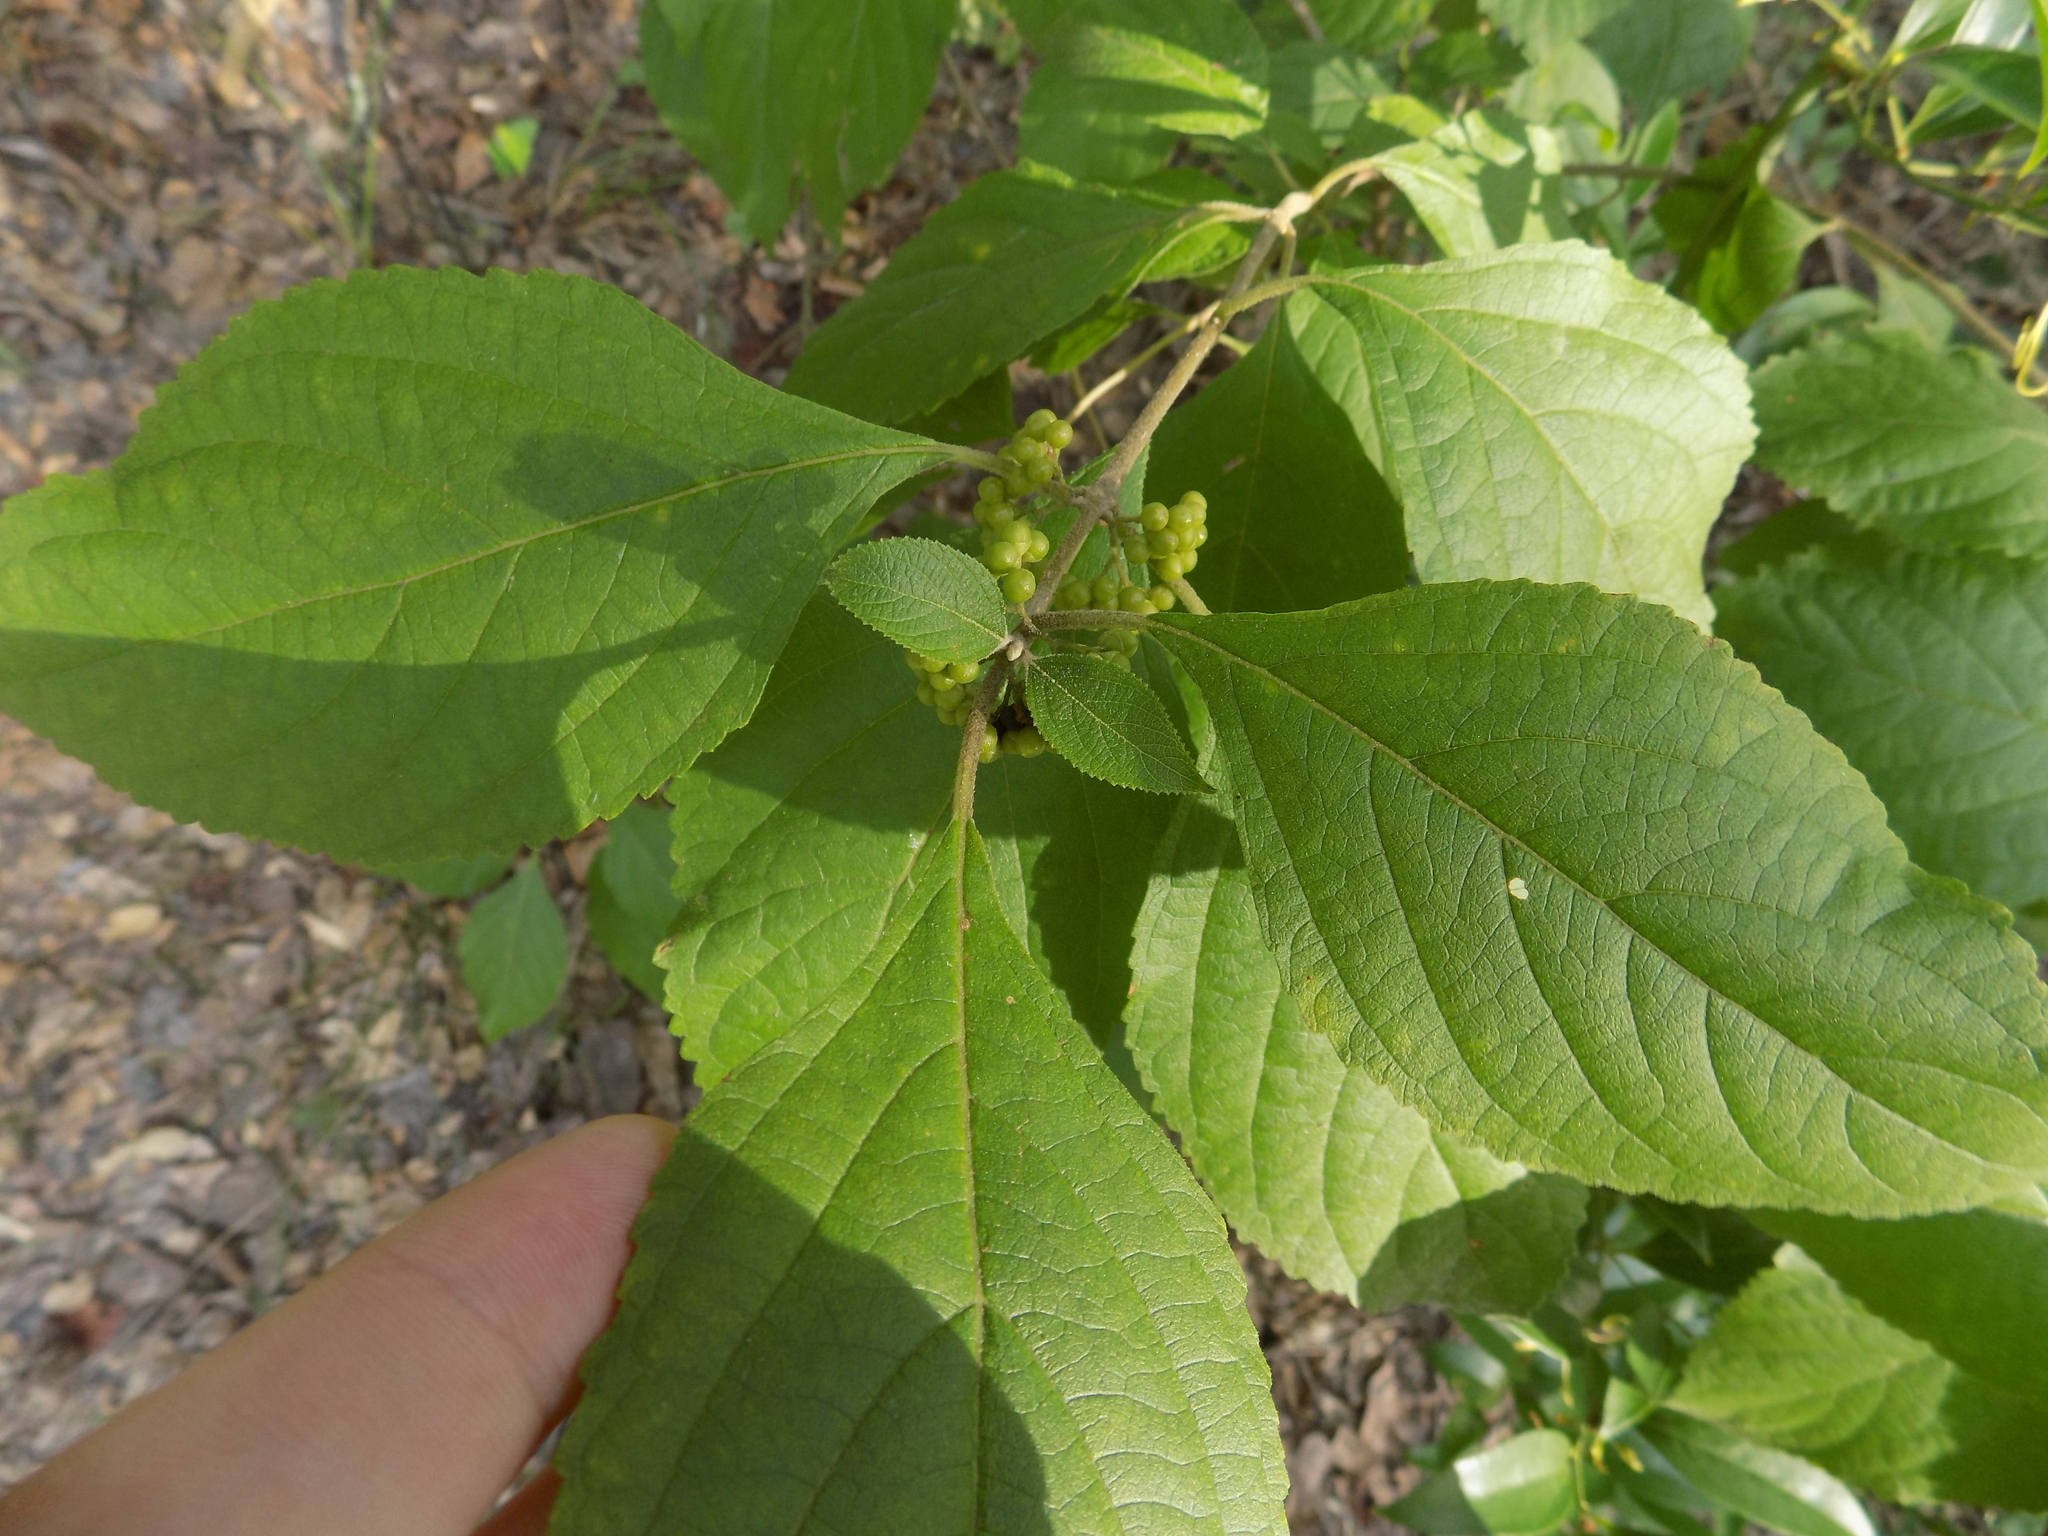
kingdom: Plantae
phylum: Tracheophyta
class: Magnoliopsida
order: Lamiales
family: Lamiaceae
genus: Callicarpa
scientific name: Callicarpa americana
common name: American beautyberry
